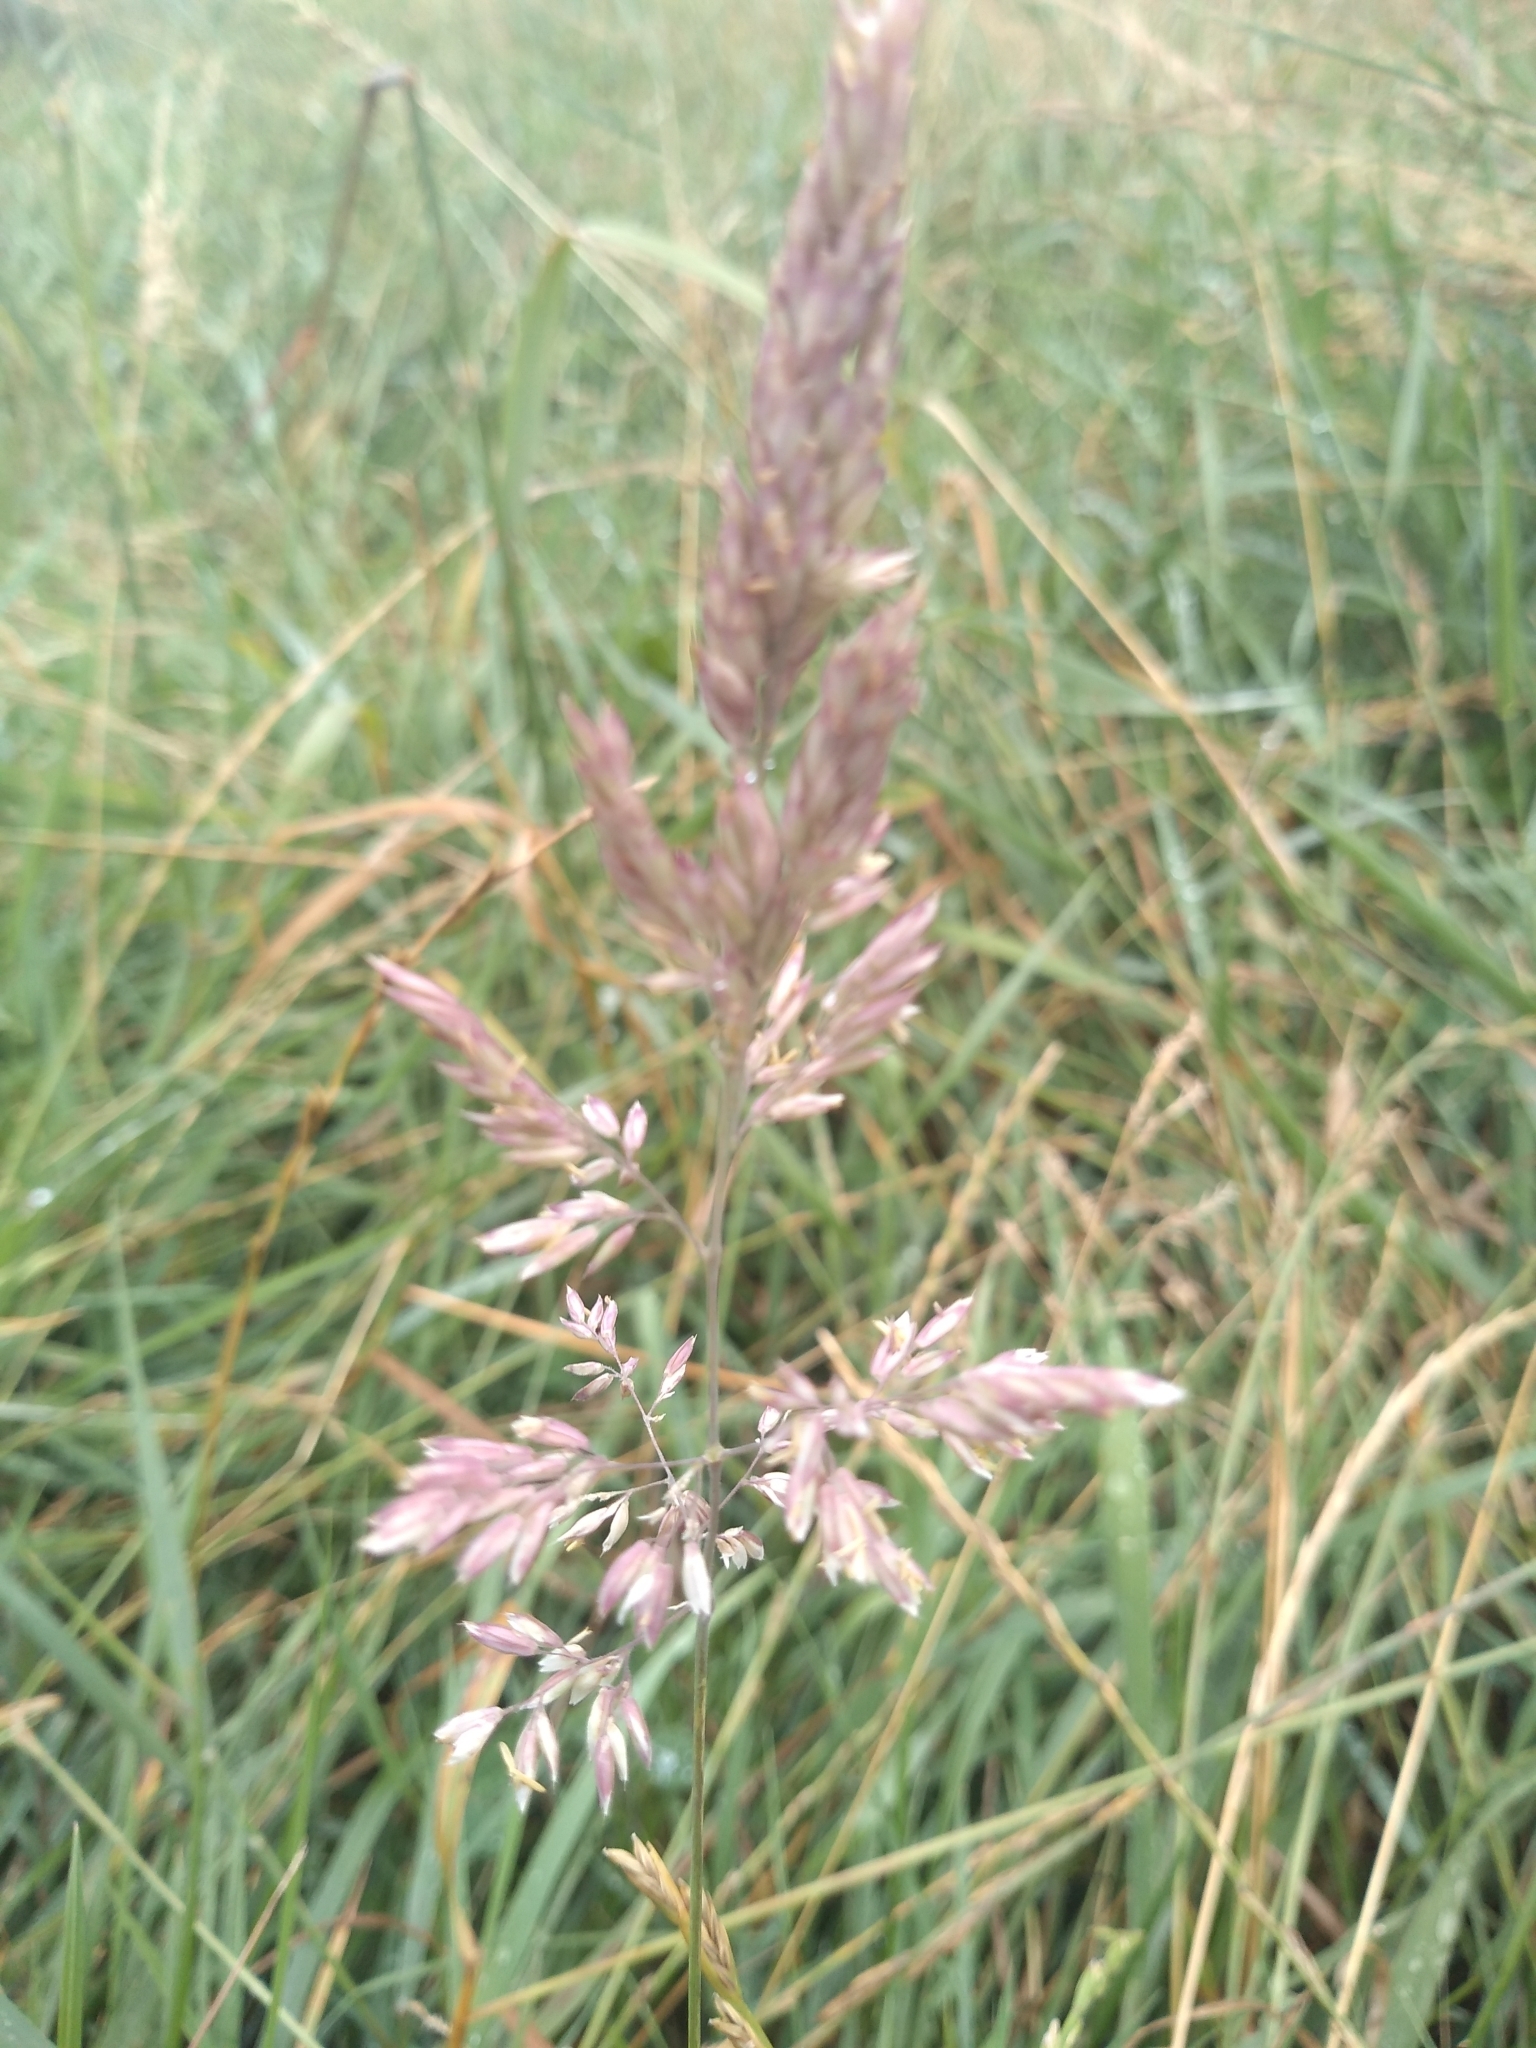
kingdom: Plantae
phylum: Tracheophyta
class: Liliopsida
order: Poales
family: Poaceae
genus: Holcus
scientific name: Holcus lanatus
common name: Yorkshire-fog
